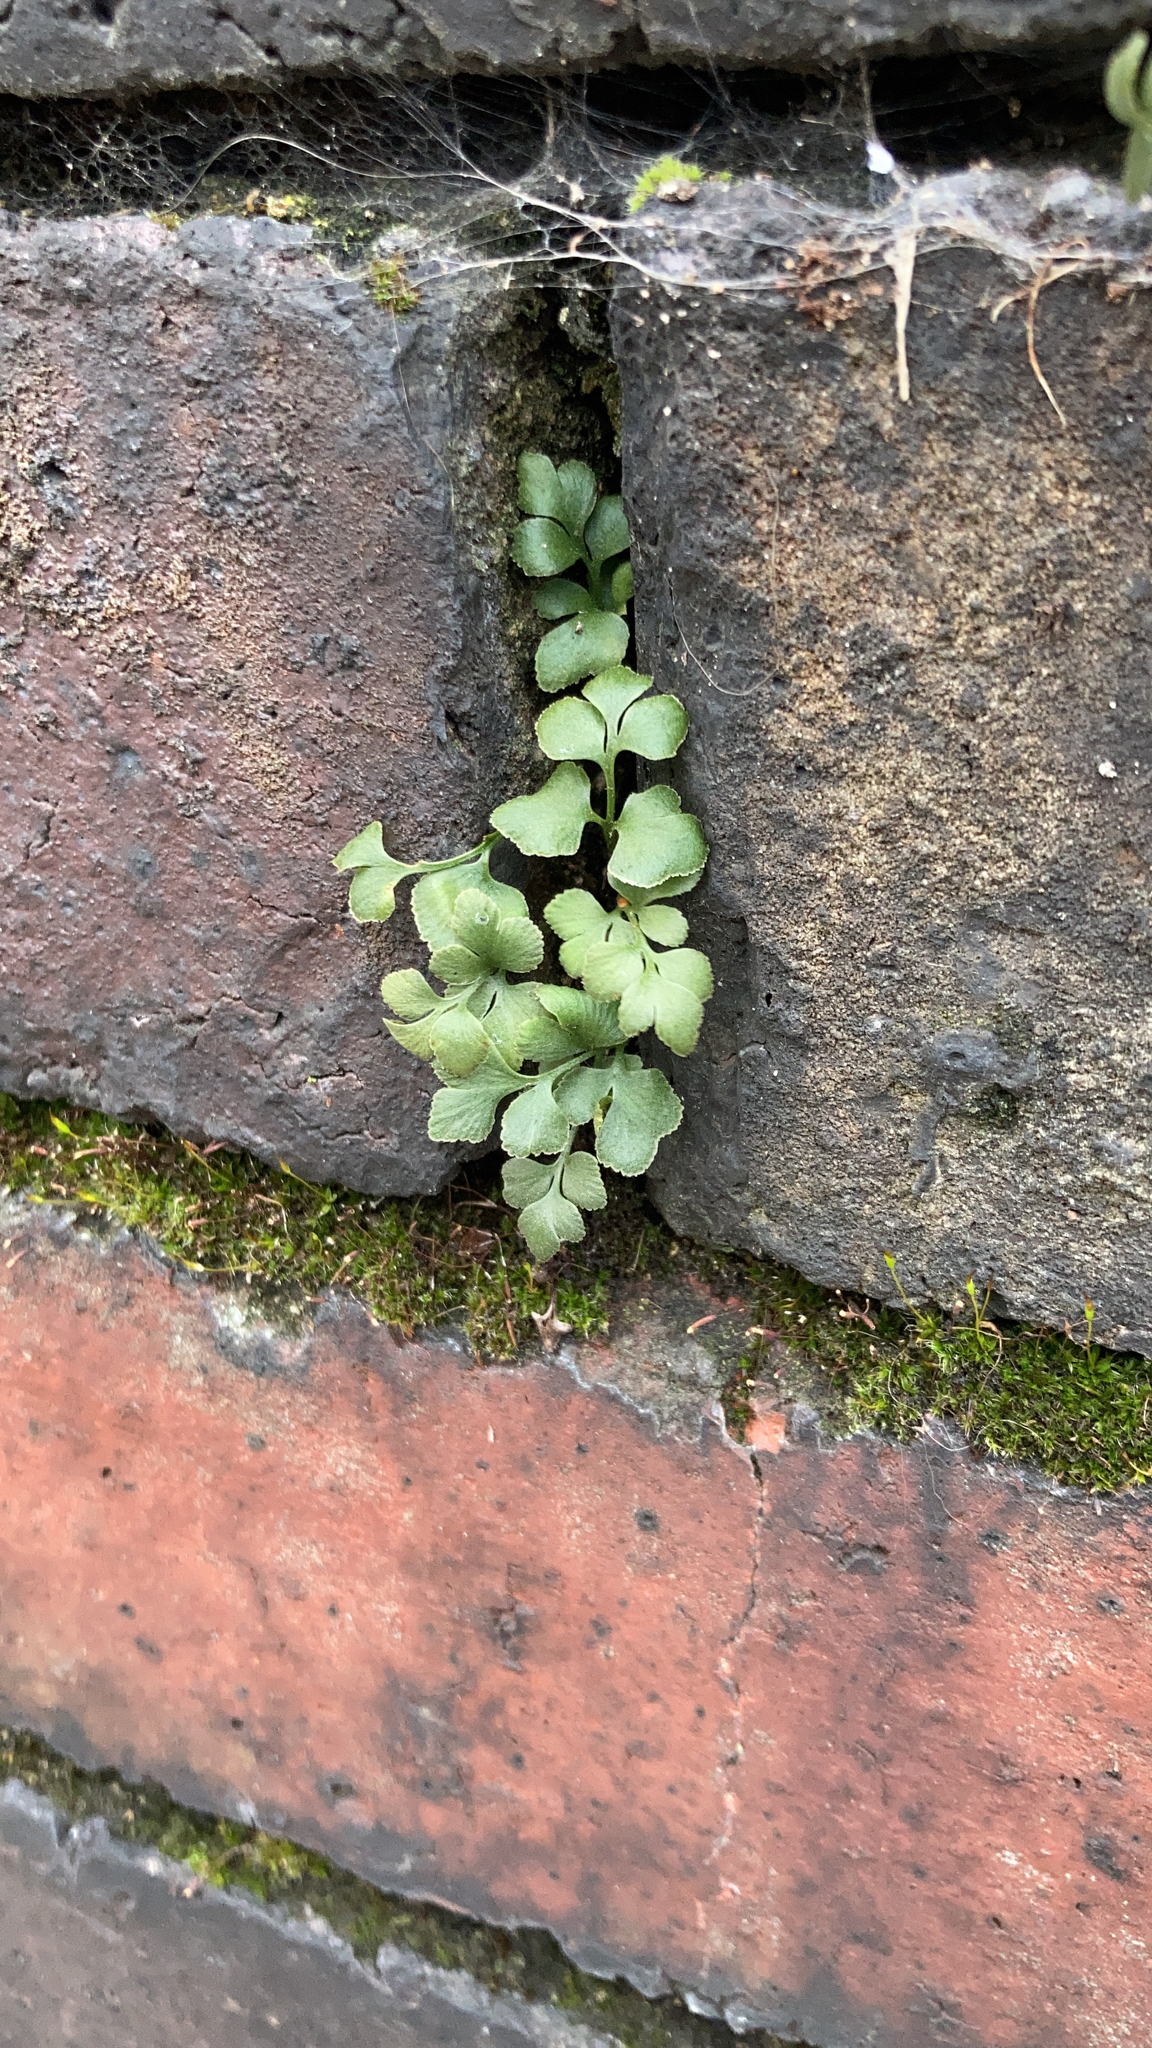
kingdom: Plantae
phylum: Tracheophyta
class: Polypodiopsida
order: Polypodiales
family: Aspleniaceae
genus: Asplenium
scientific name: Asplenium ruta-muraria
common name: Wall-rue
